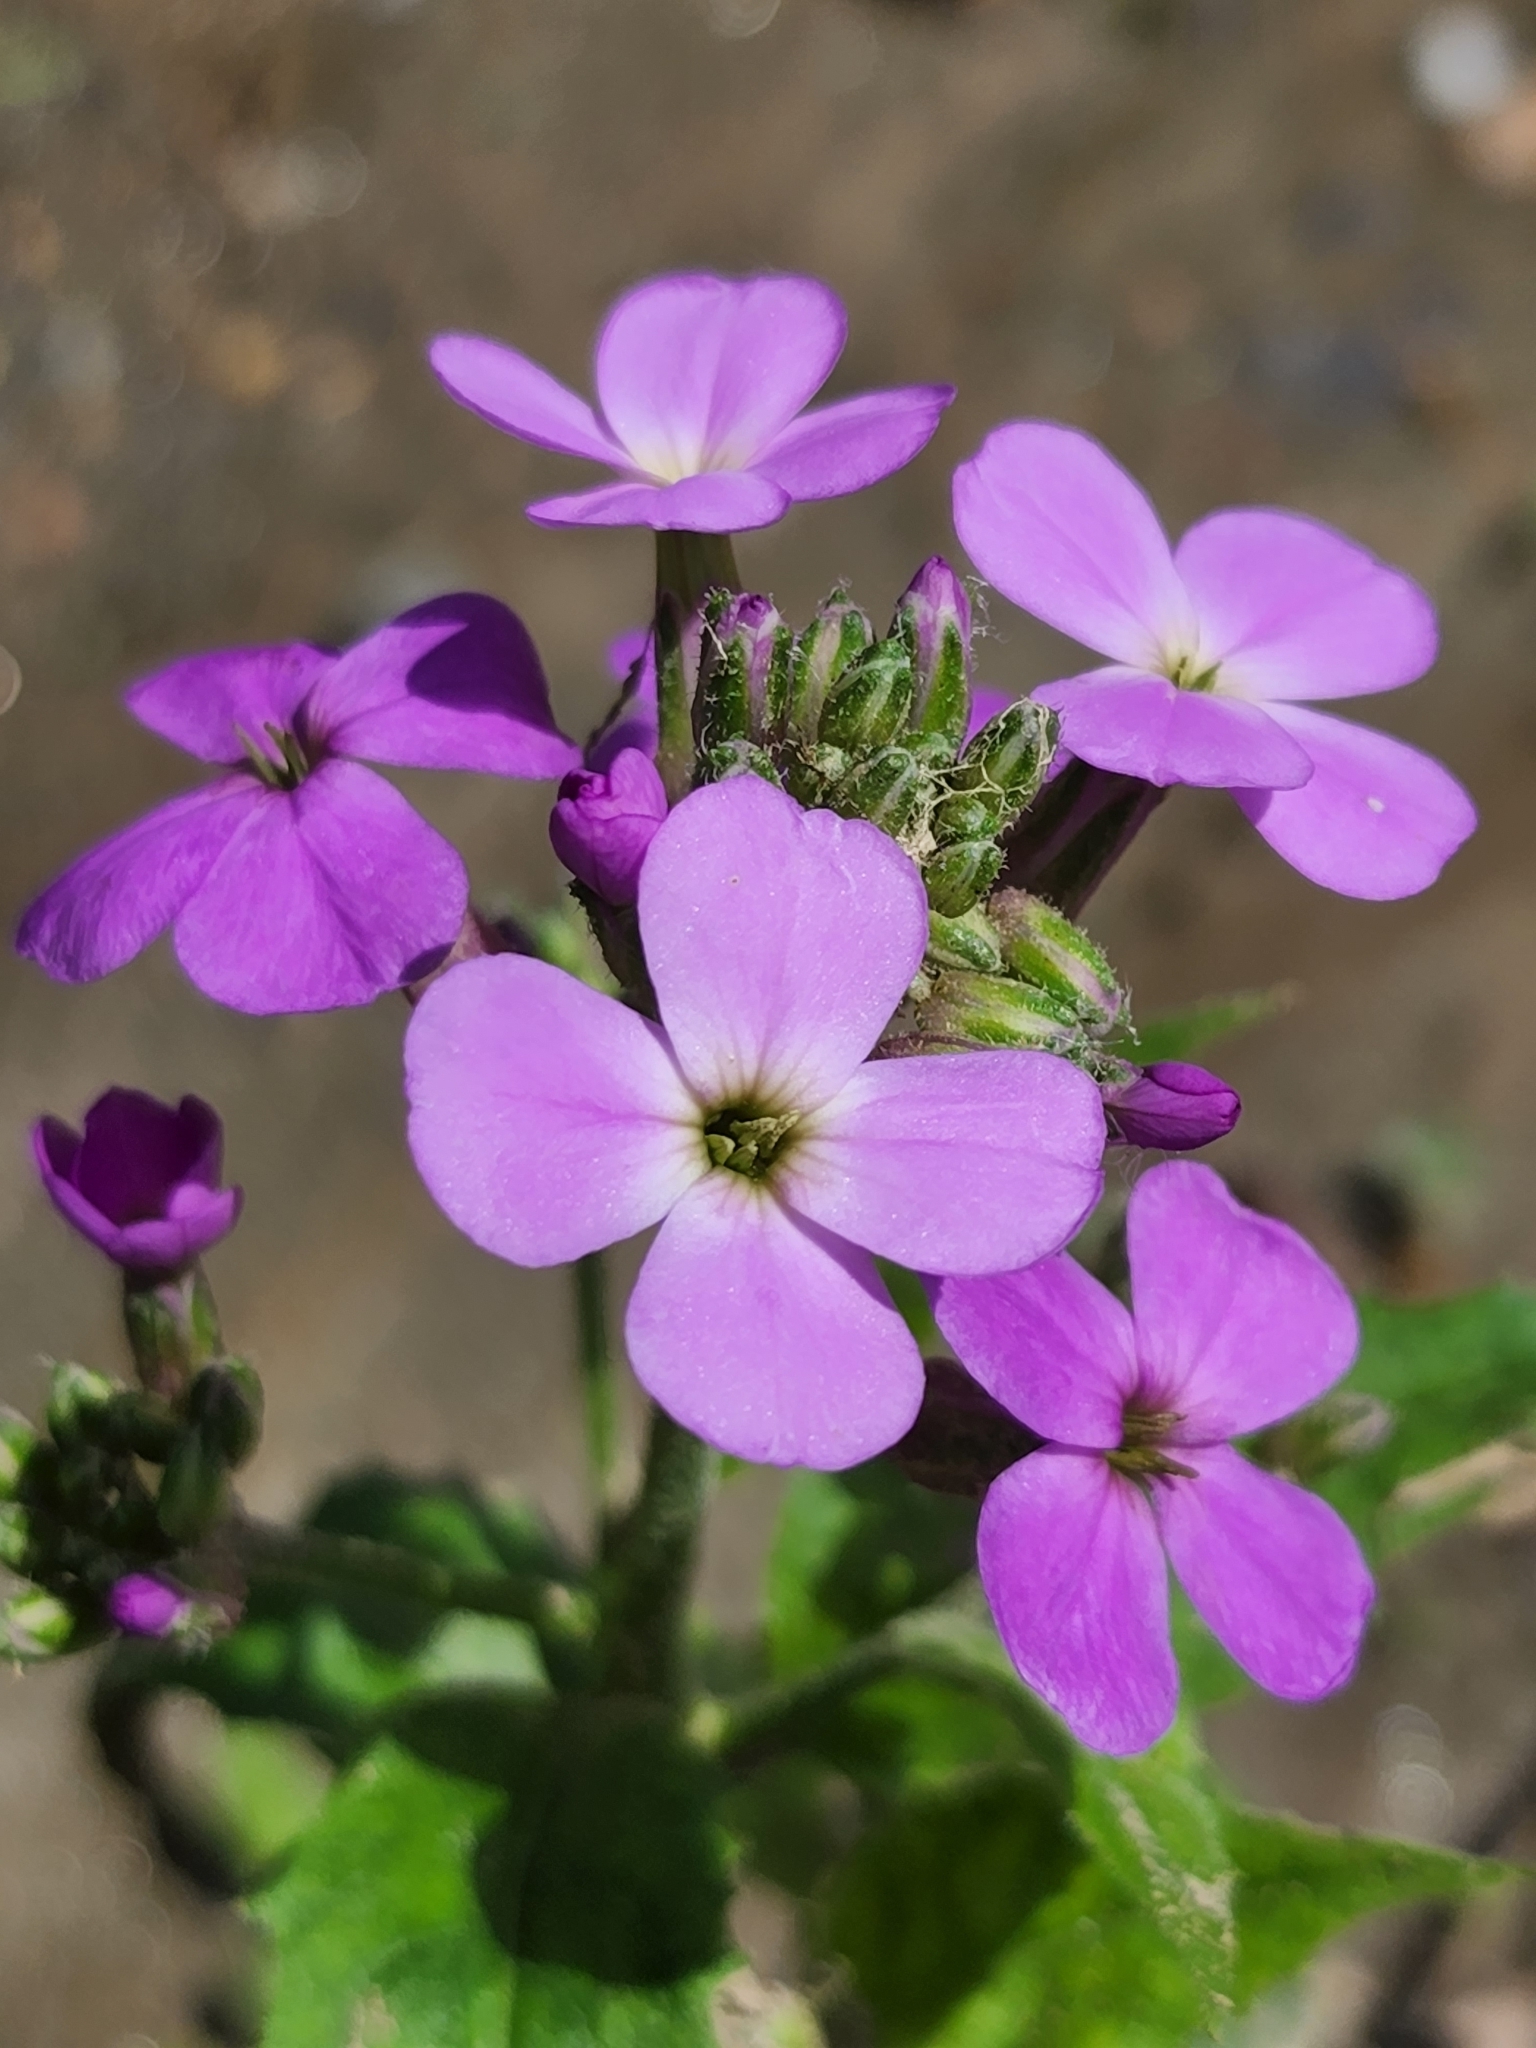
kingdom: Plantae
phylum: Tracheophyta
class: Magnoliopsida
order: Brassicales
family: Brassicaceae
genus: Hesperis
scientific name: Hesperis matronalis
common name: Dame's-violet
